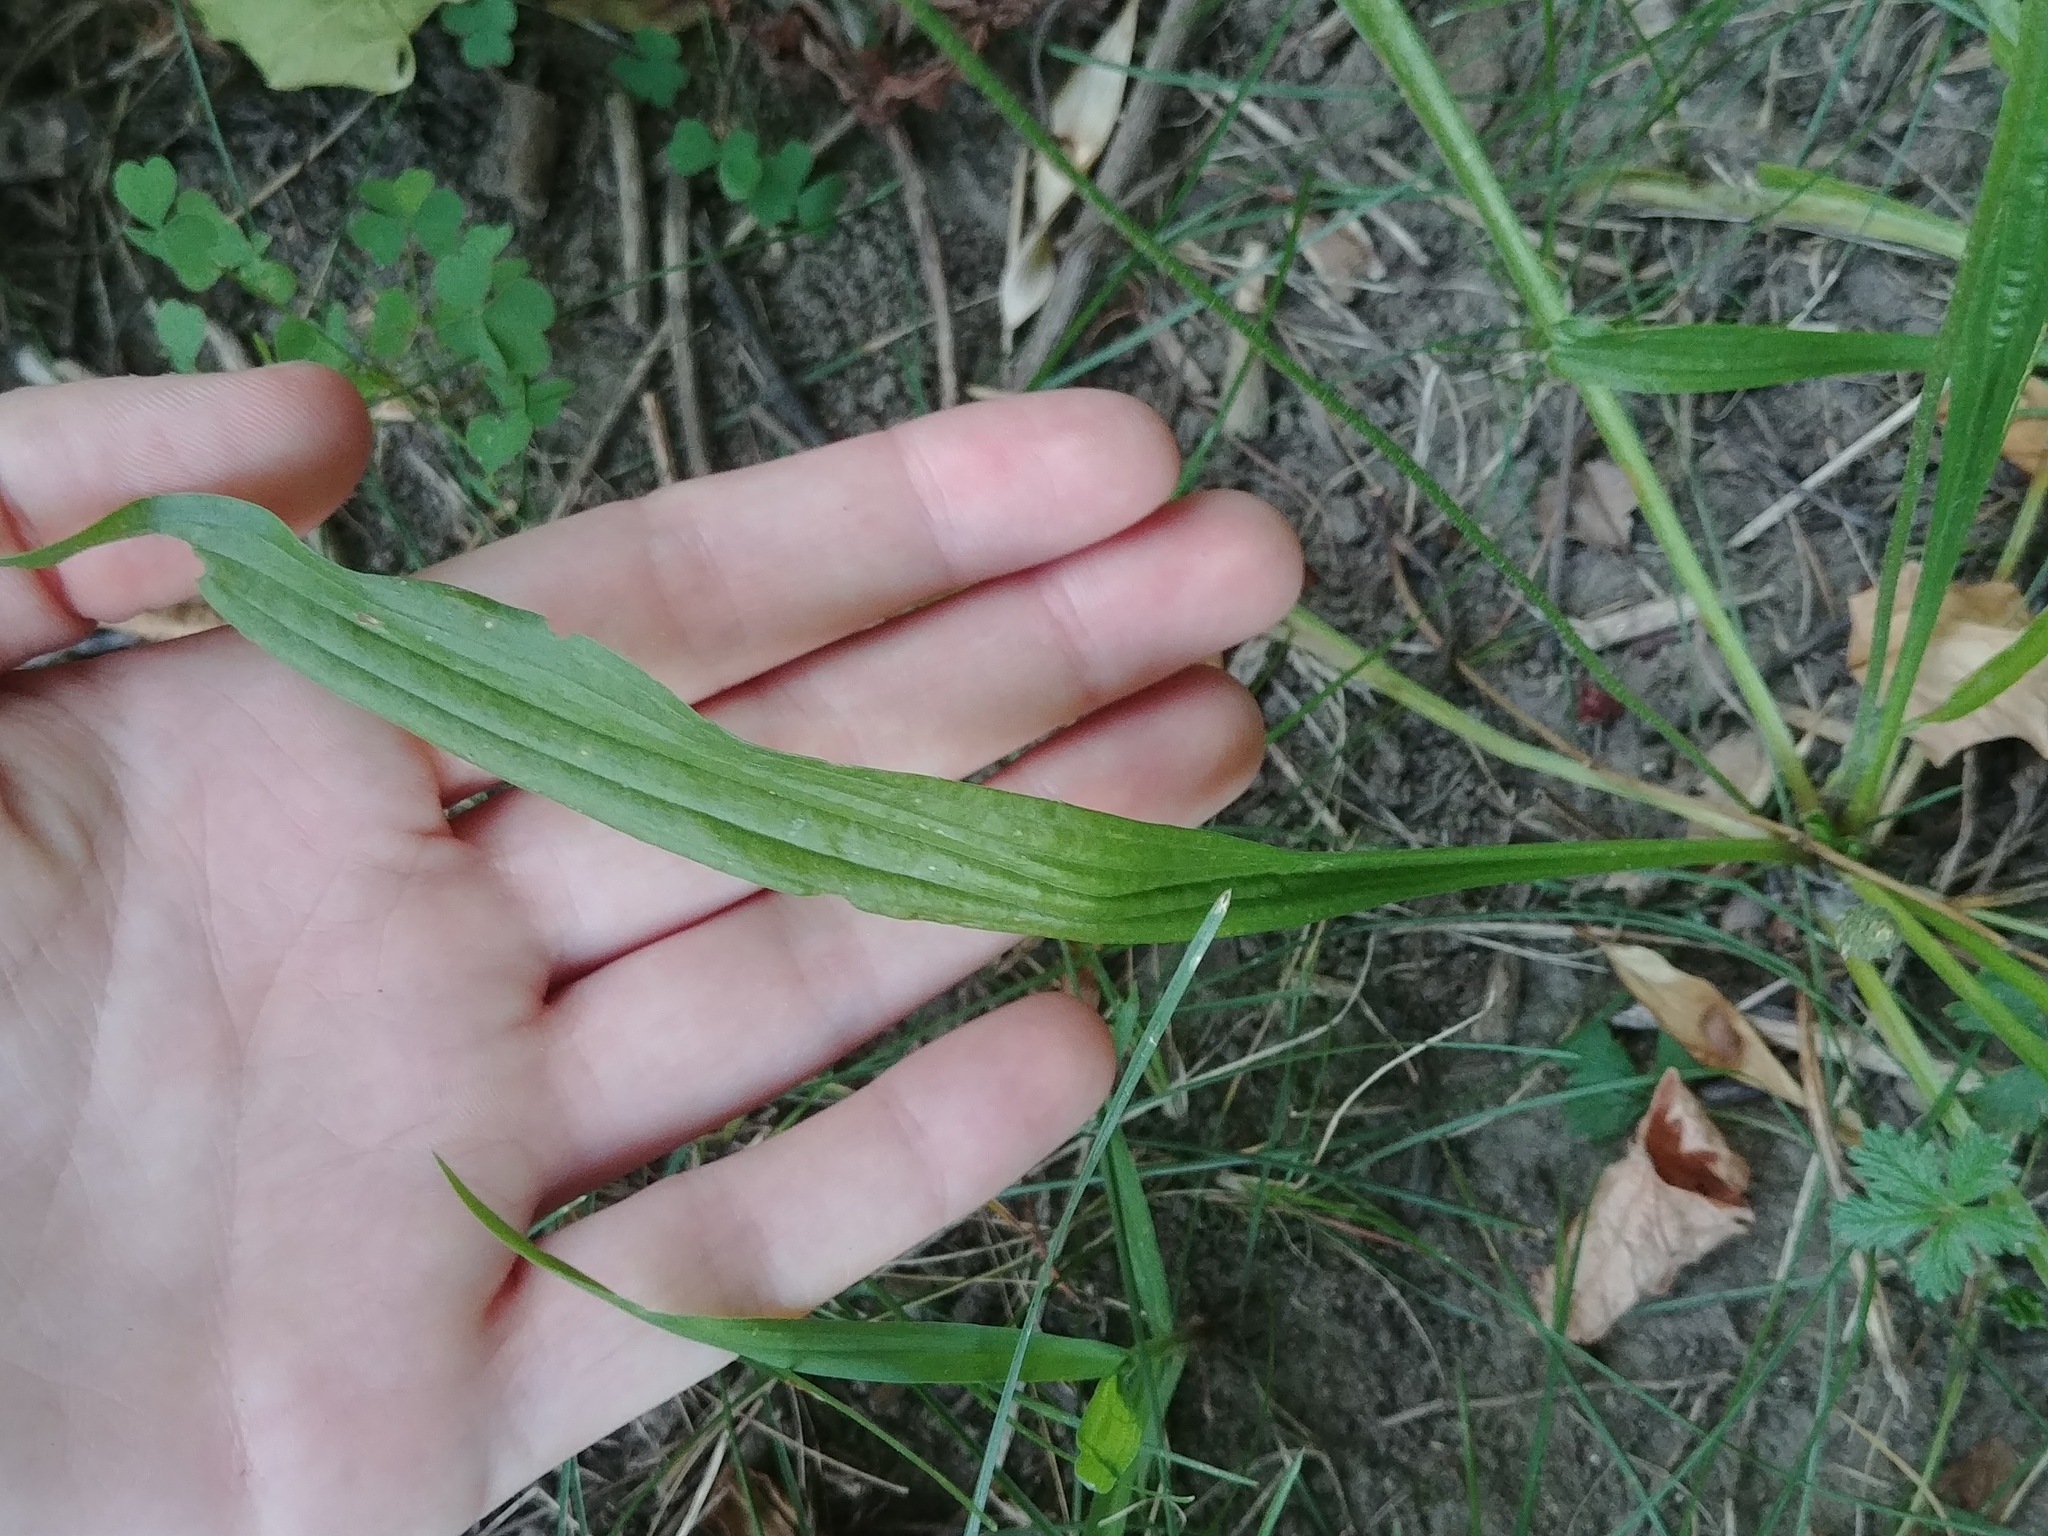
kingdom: Plantae
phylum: Tracheophyta
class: Magnoliopsida
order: Lamiales
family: Plantaginaceae
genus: Plantago
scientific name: Plantago lanceolata
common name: Ribwort plantain
